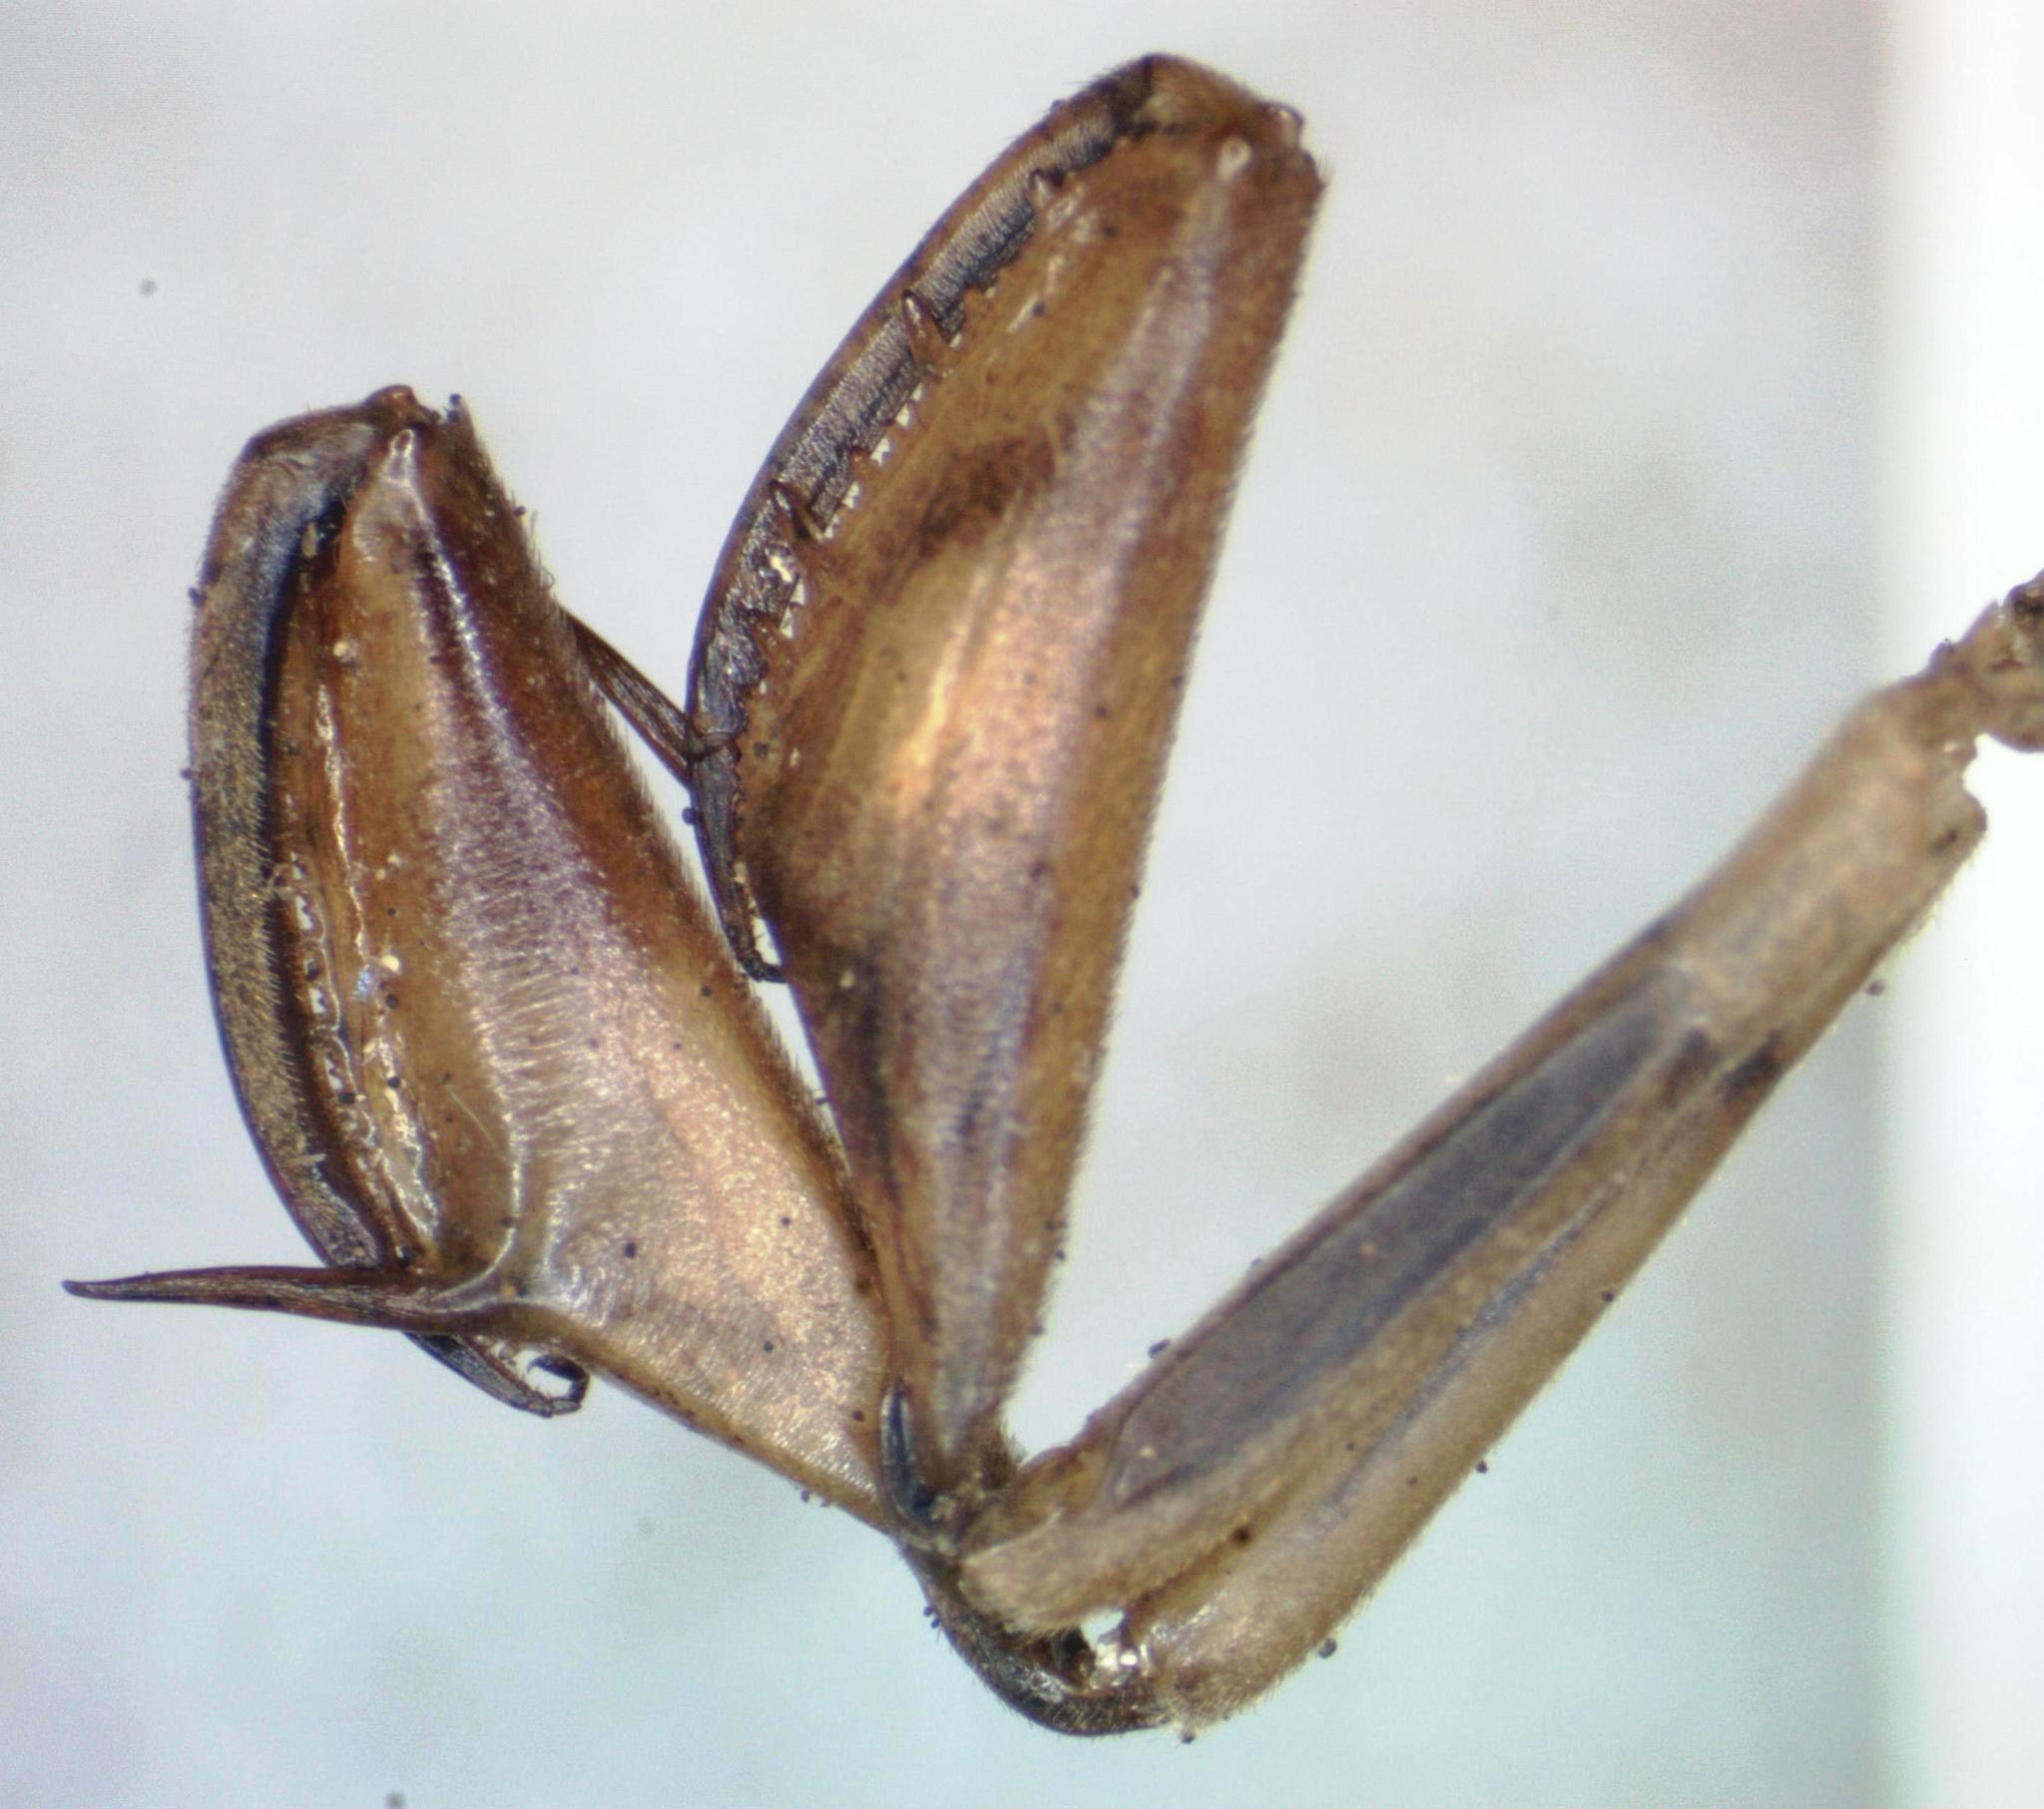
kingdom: Animalia
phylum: Arthropoda
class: Insecta
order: Neuroptera
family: Mantispidae
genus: Entanoneura
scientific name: Entanoneura batesella
